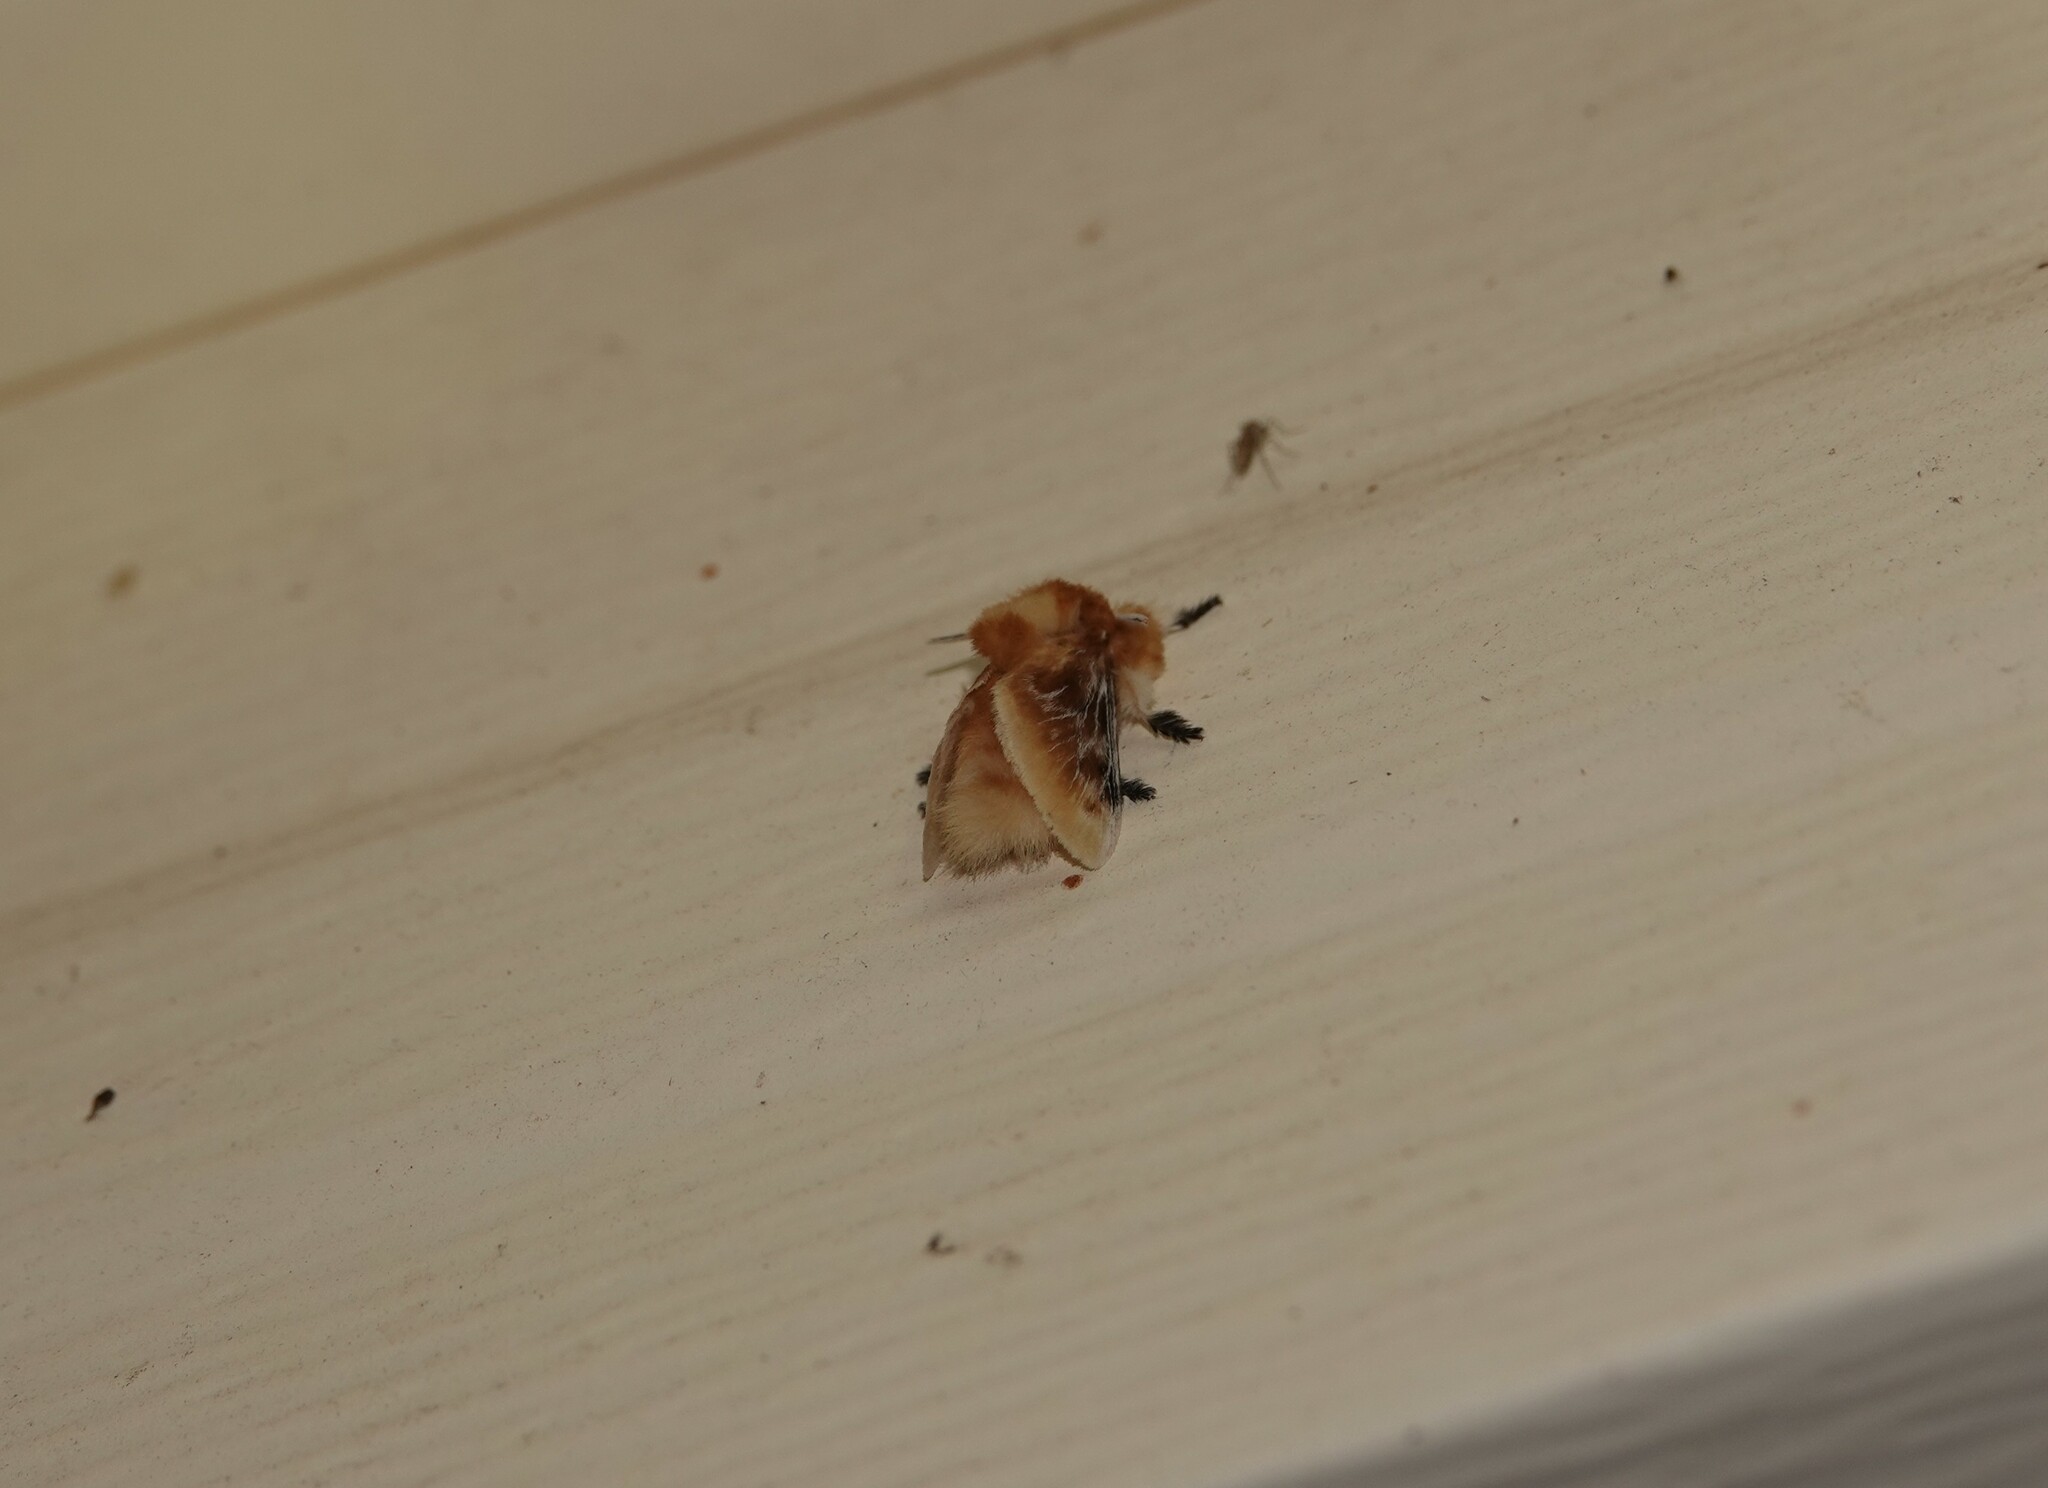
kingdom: Animalia
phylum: Arthropoda
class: Insecta
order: Lepidoptera
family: Megalopygidae
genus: Megalopyge
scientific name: Megalopyge opercularis
